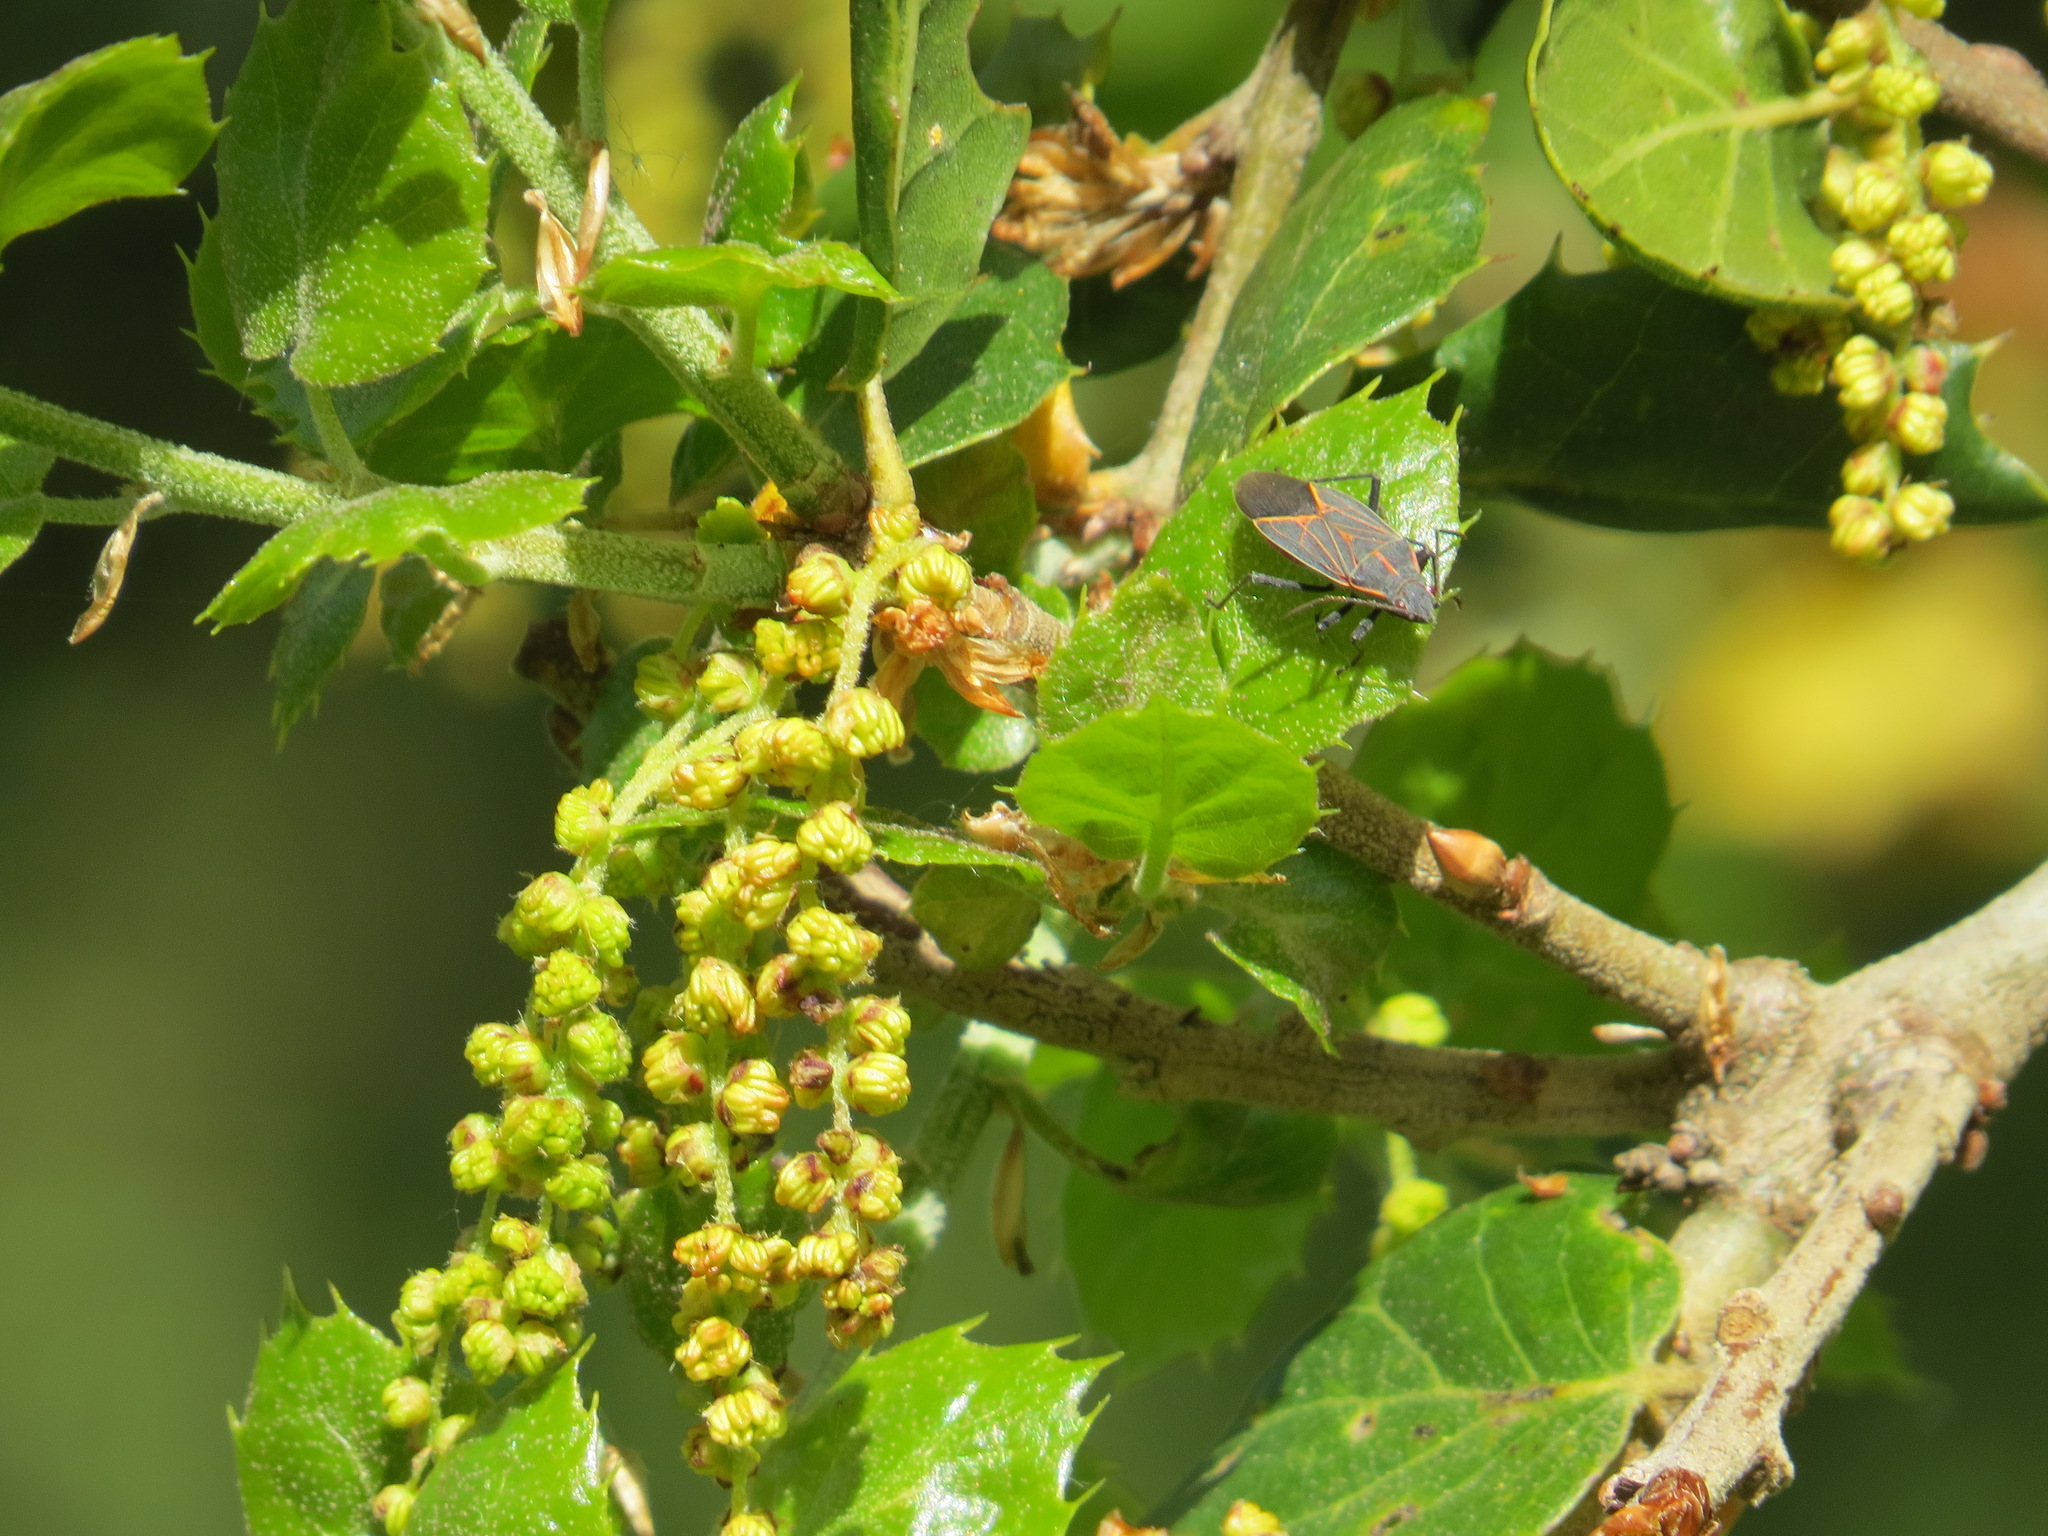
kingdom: Animalia
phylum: Arthropoda
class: Insecta
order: Hemiptera
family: Rhopalidae
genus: Boisea
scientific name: Boisea rubrolineata
